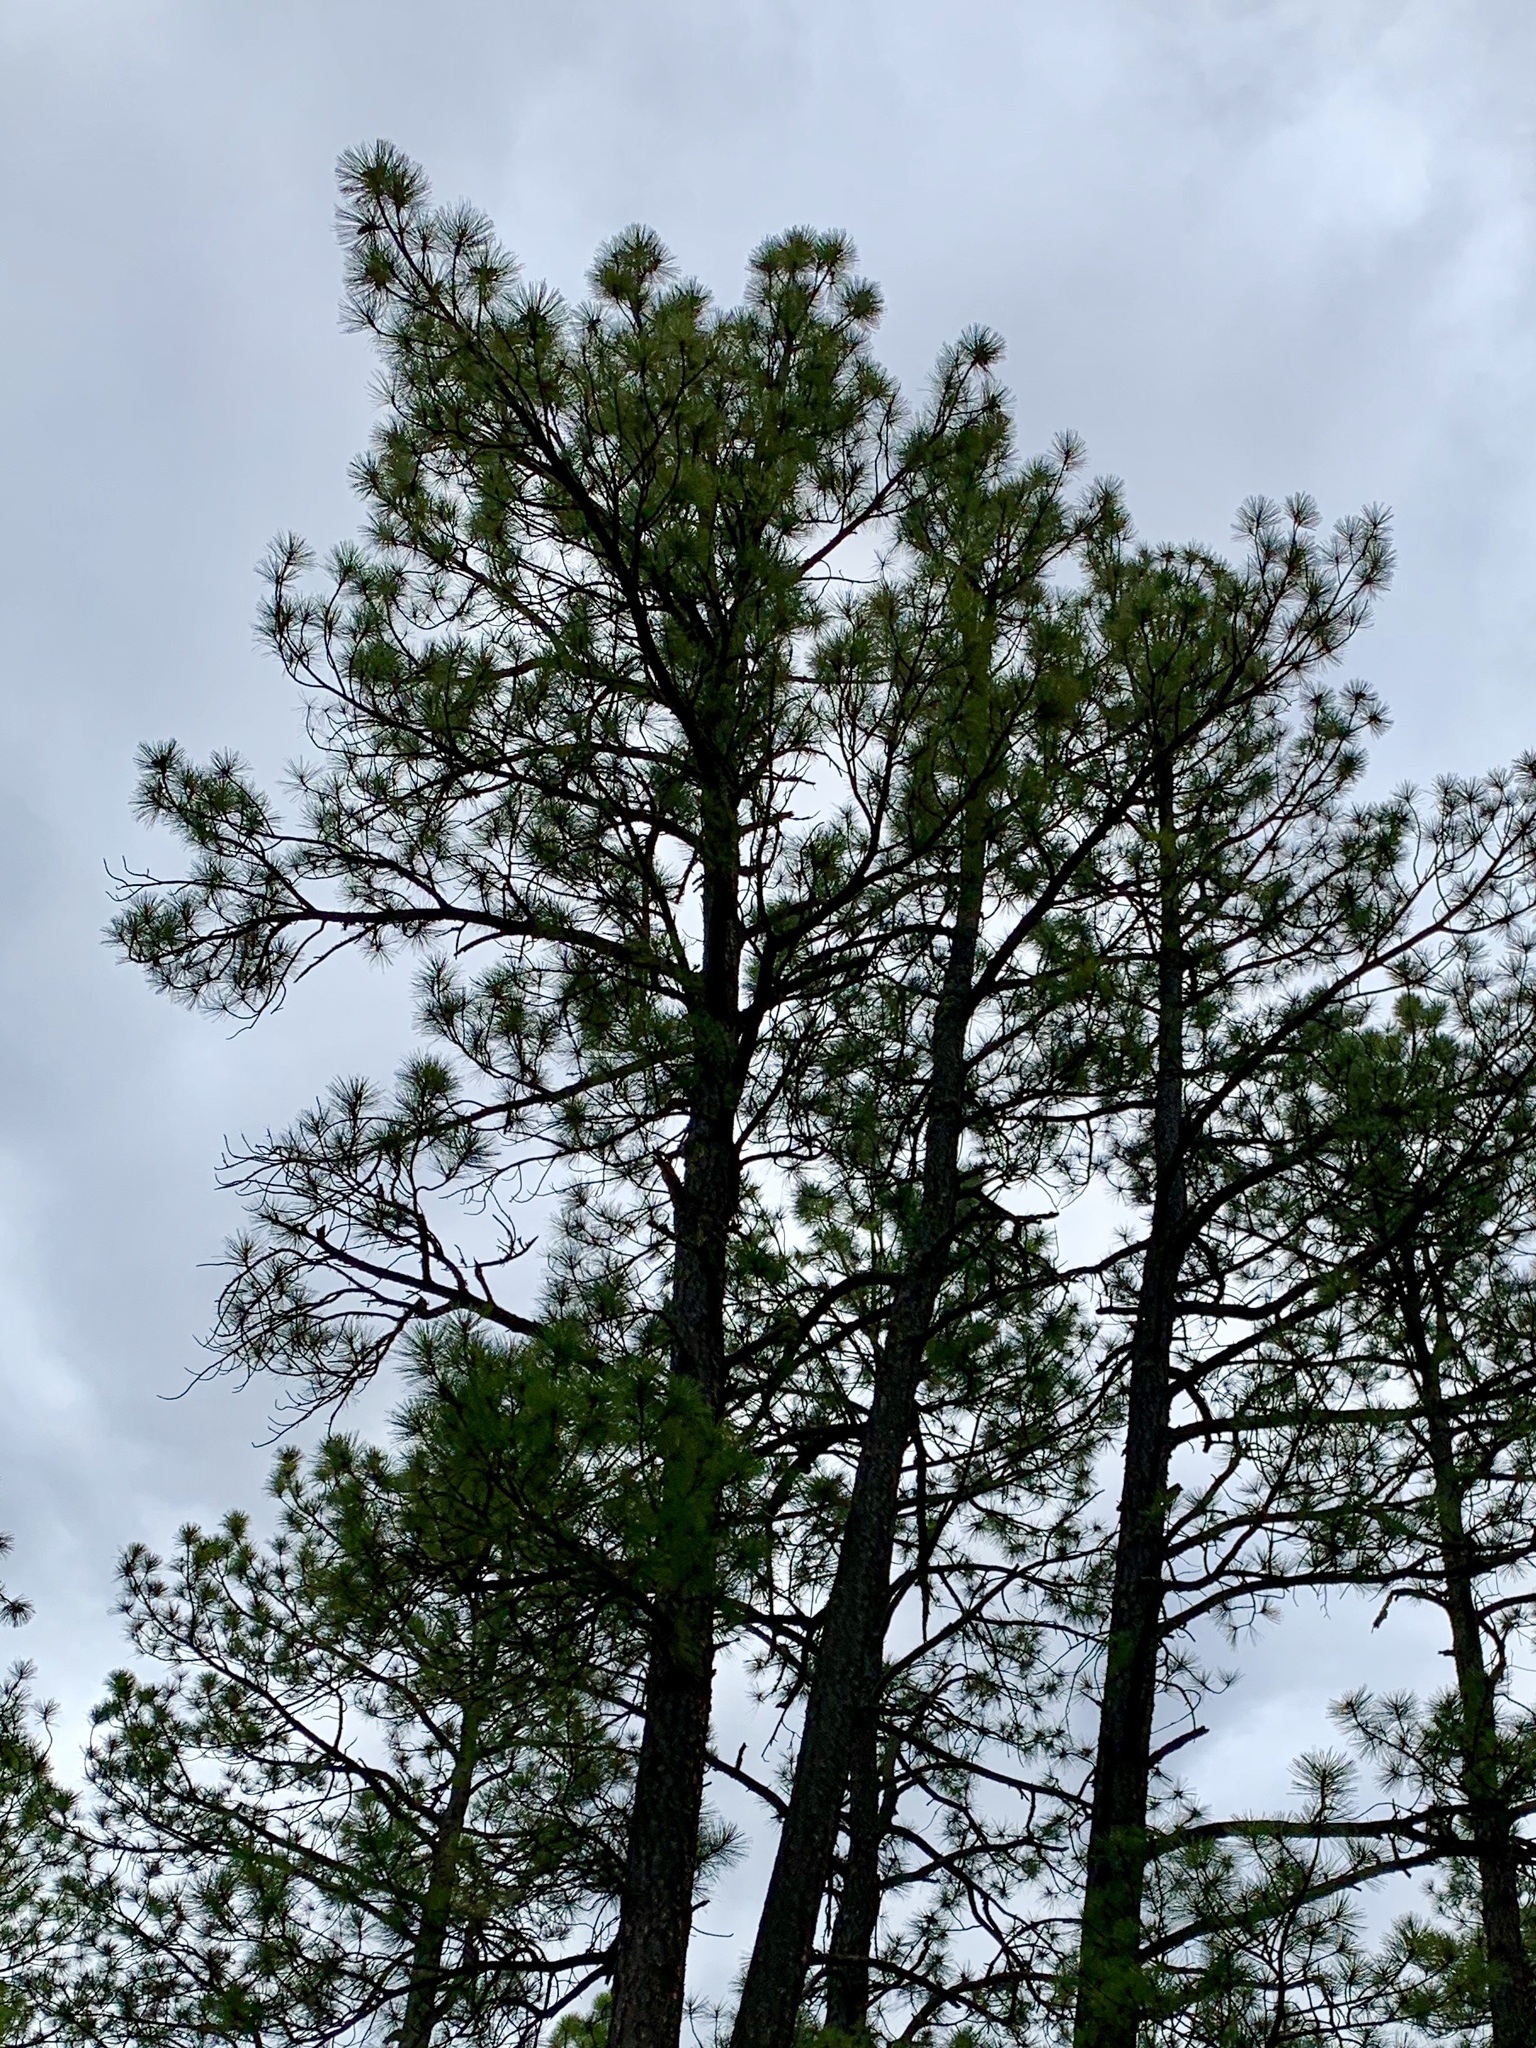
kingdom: Plantae
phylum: Tracheophyta
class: Pinopsida
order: Pinales
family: Pinaceae
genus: Pinus
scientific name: Pinus ponderosa
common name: Western yellow-pine
